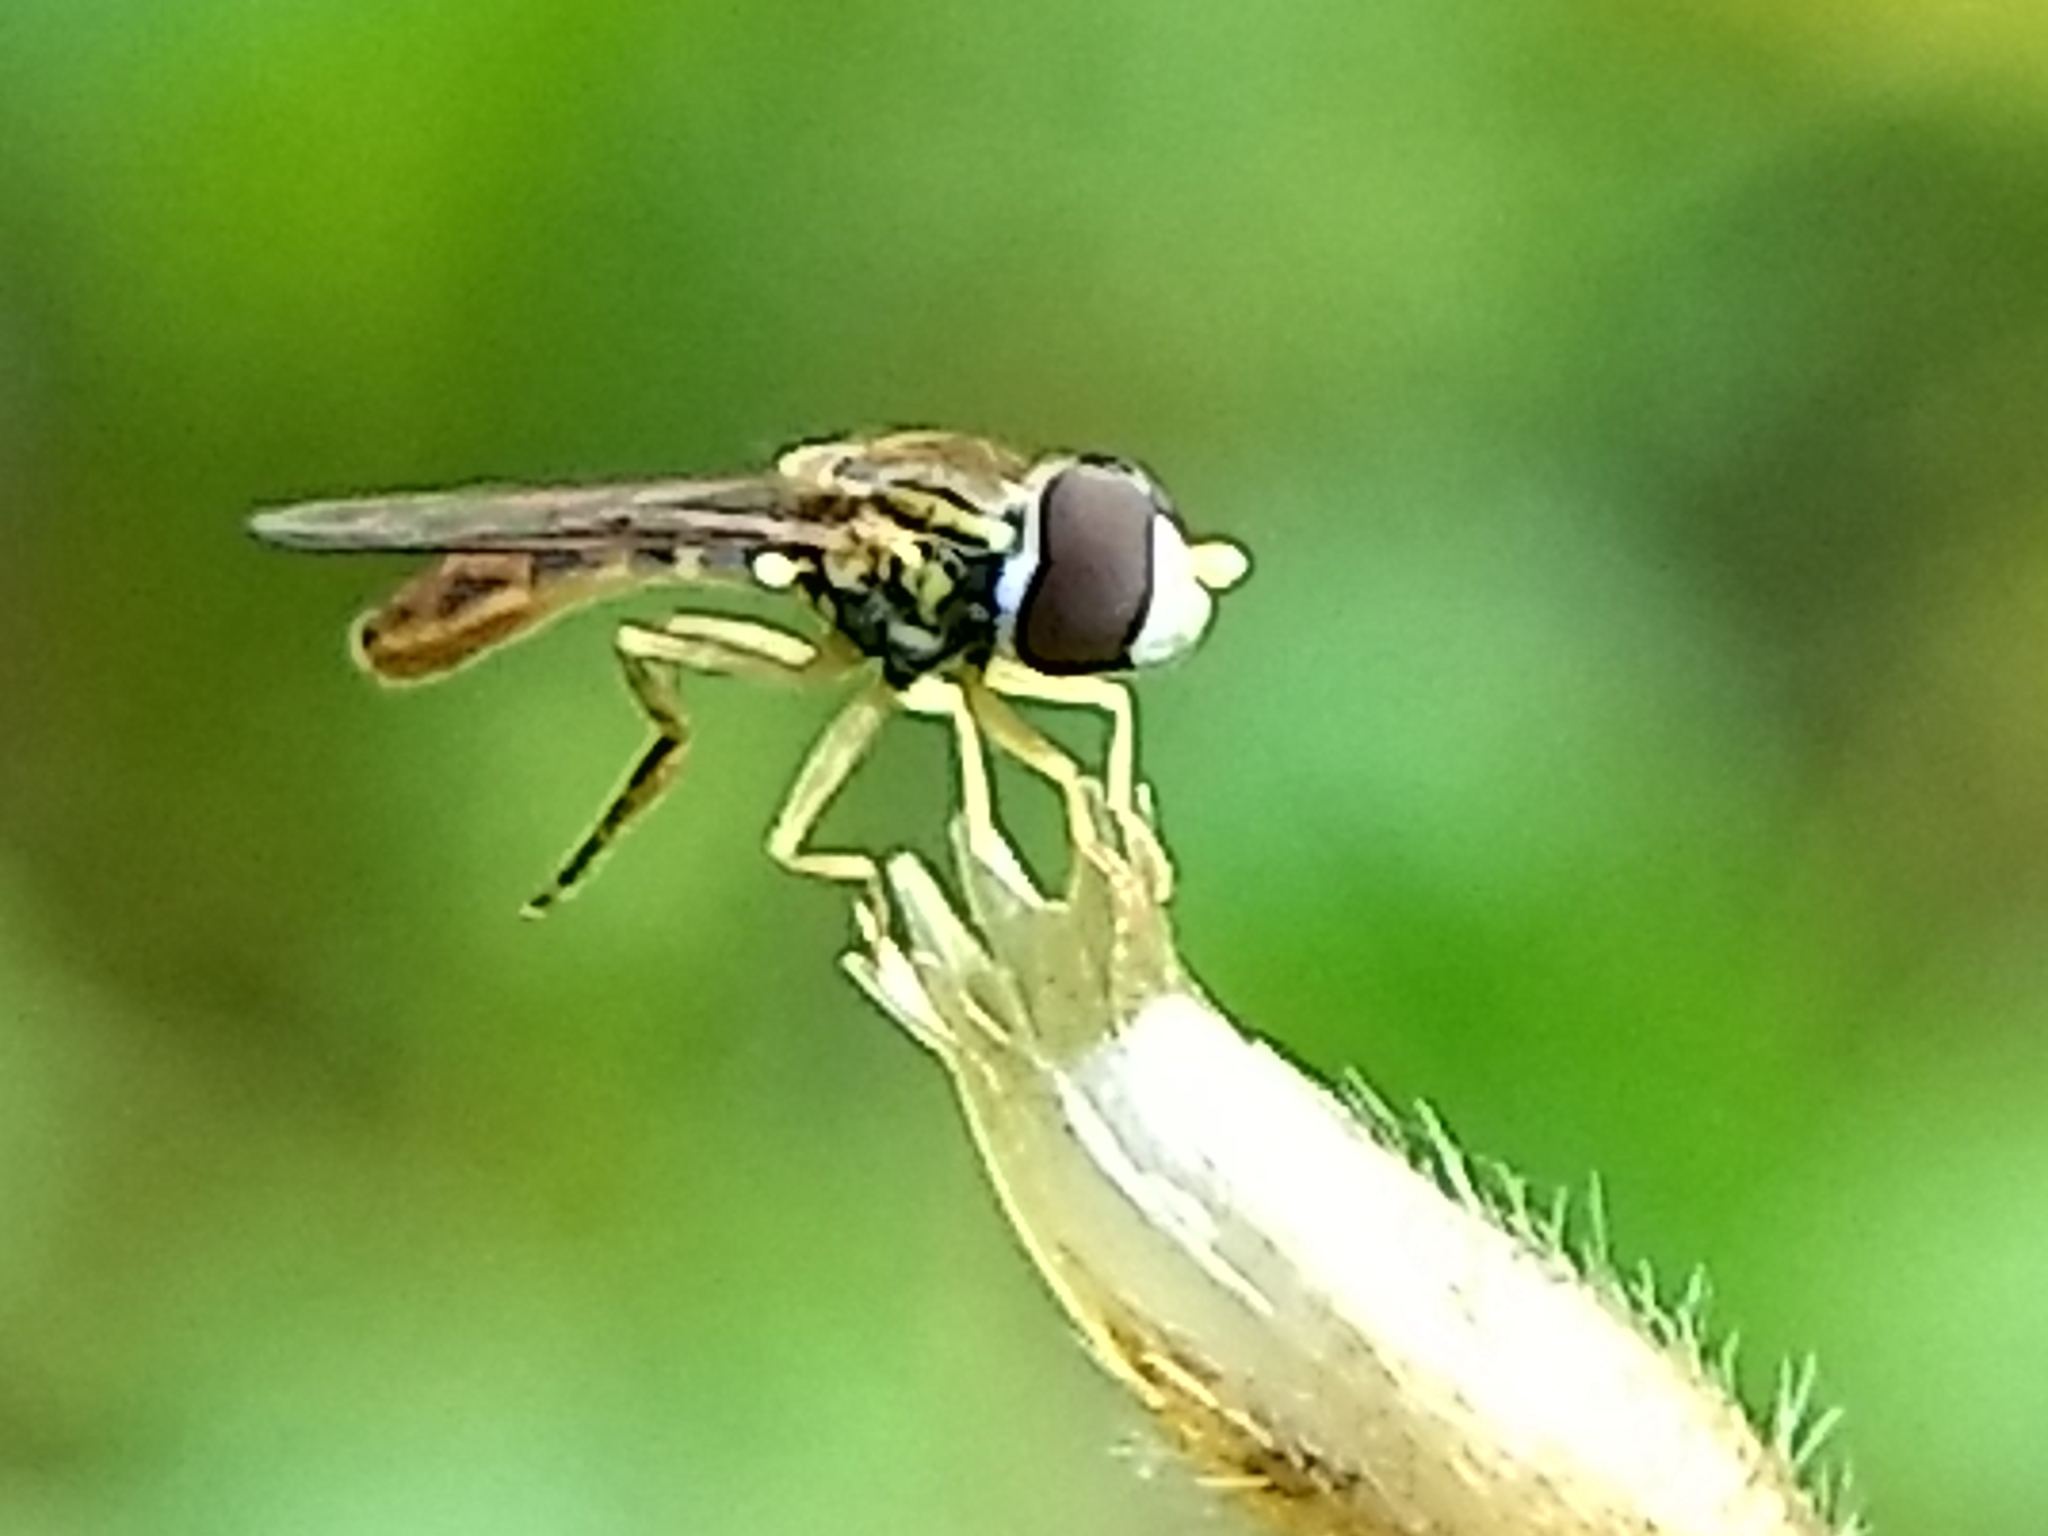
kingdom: Animalia
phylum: Arthropoda
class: Insecta
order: Diptera
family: Syrphidae
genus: Toxomerus
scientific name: Toxomerus marginatus
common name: Syrphid fly
